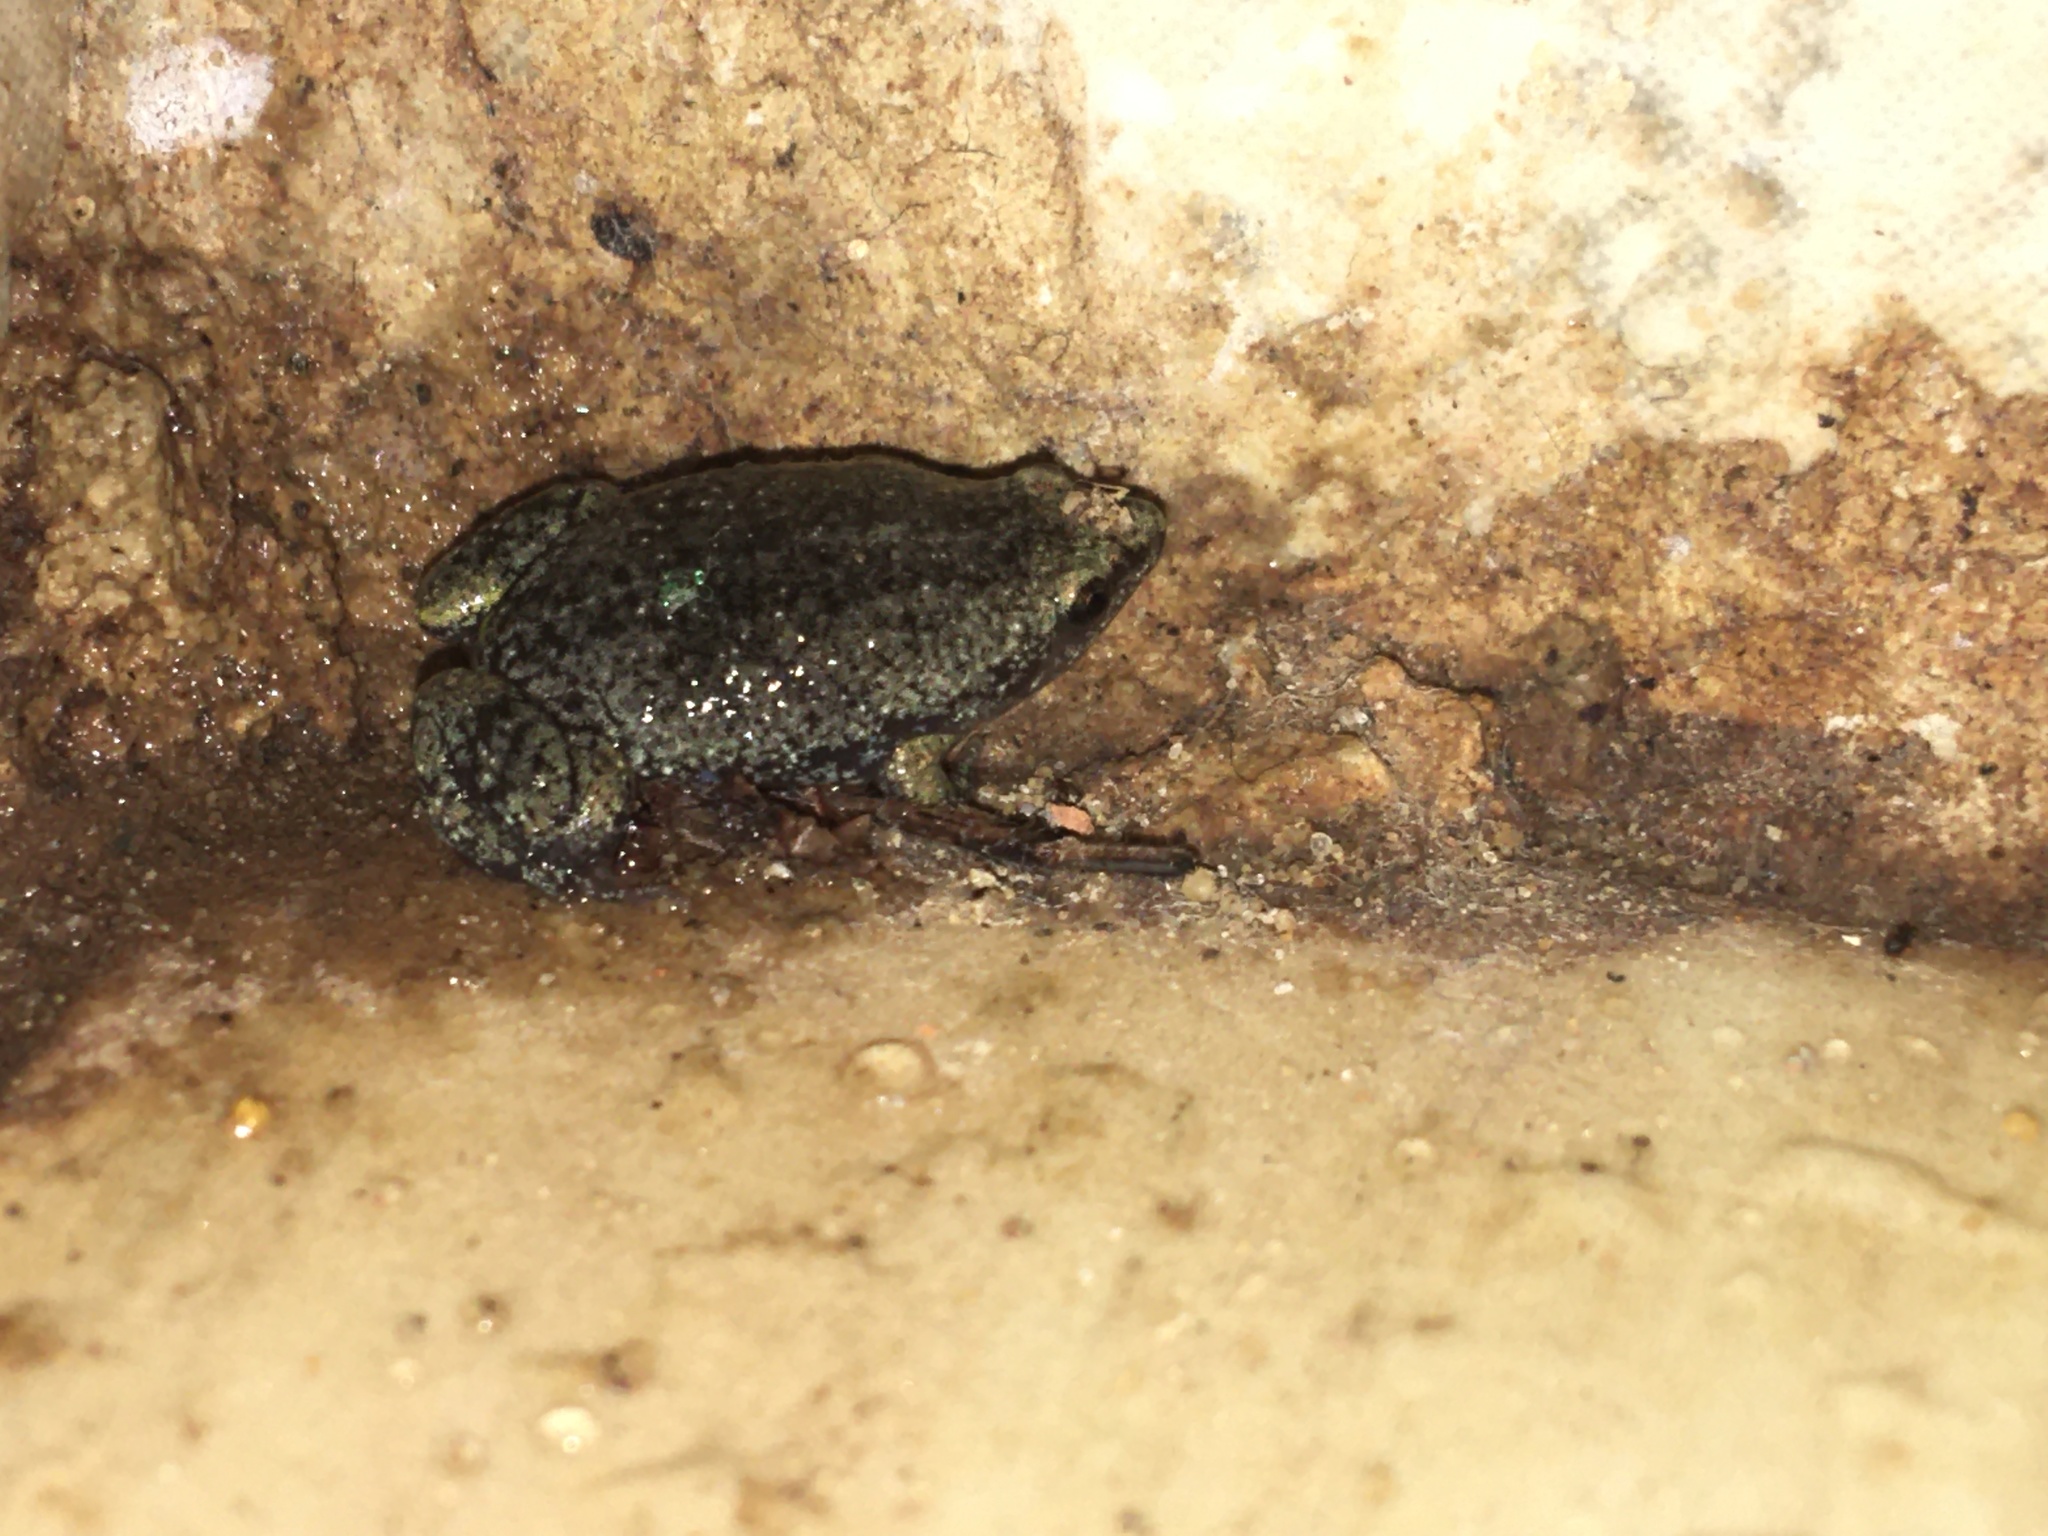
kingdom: Animalia
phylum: Chordata
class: Amphibia
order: Anura
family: Microhylidae
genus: Elachistocleis
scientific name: Elachistocleis bicolor
